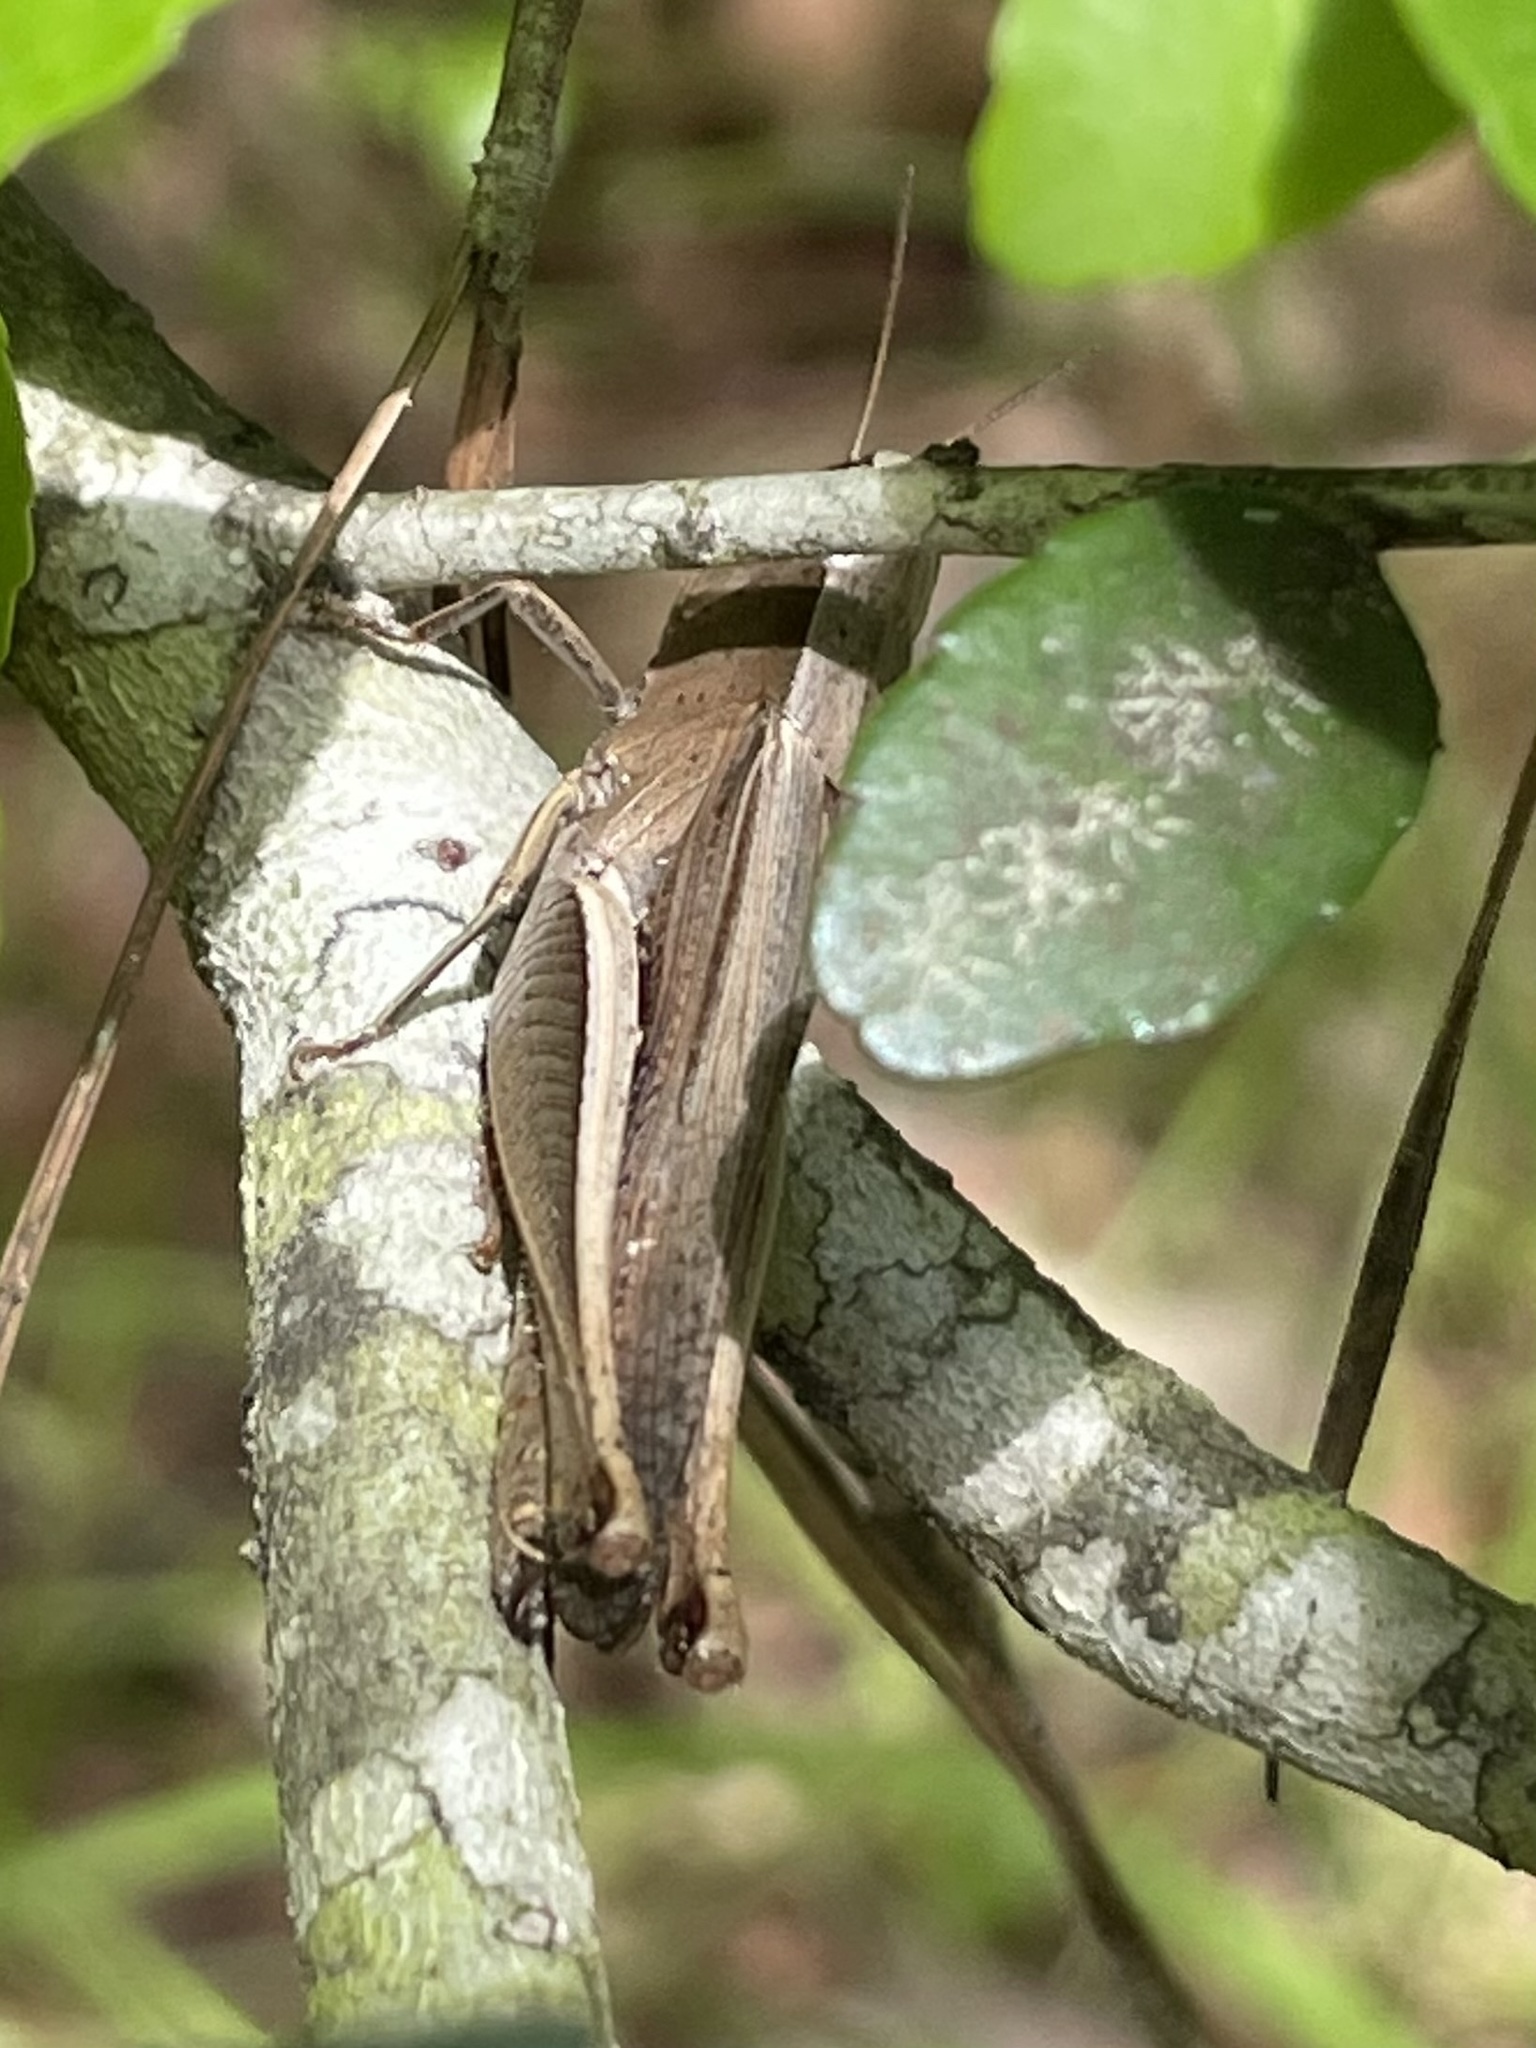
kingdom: Animalia
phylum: Arthropoda
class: Insecta
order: Orthoptera
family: Acrididae
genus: Amblytropidia
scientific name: Amblytropidia mysteca
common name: Brown winter grasshopper
